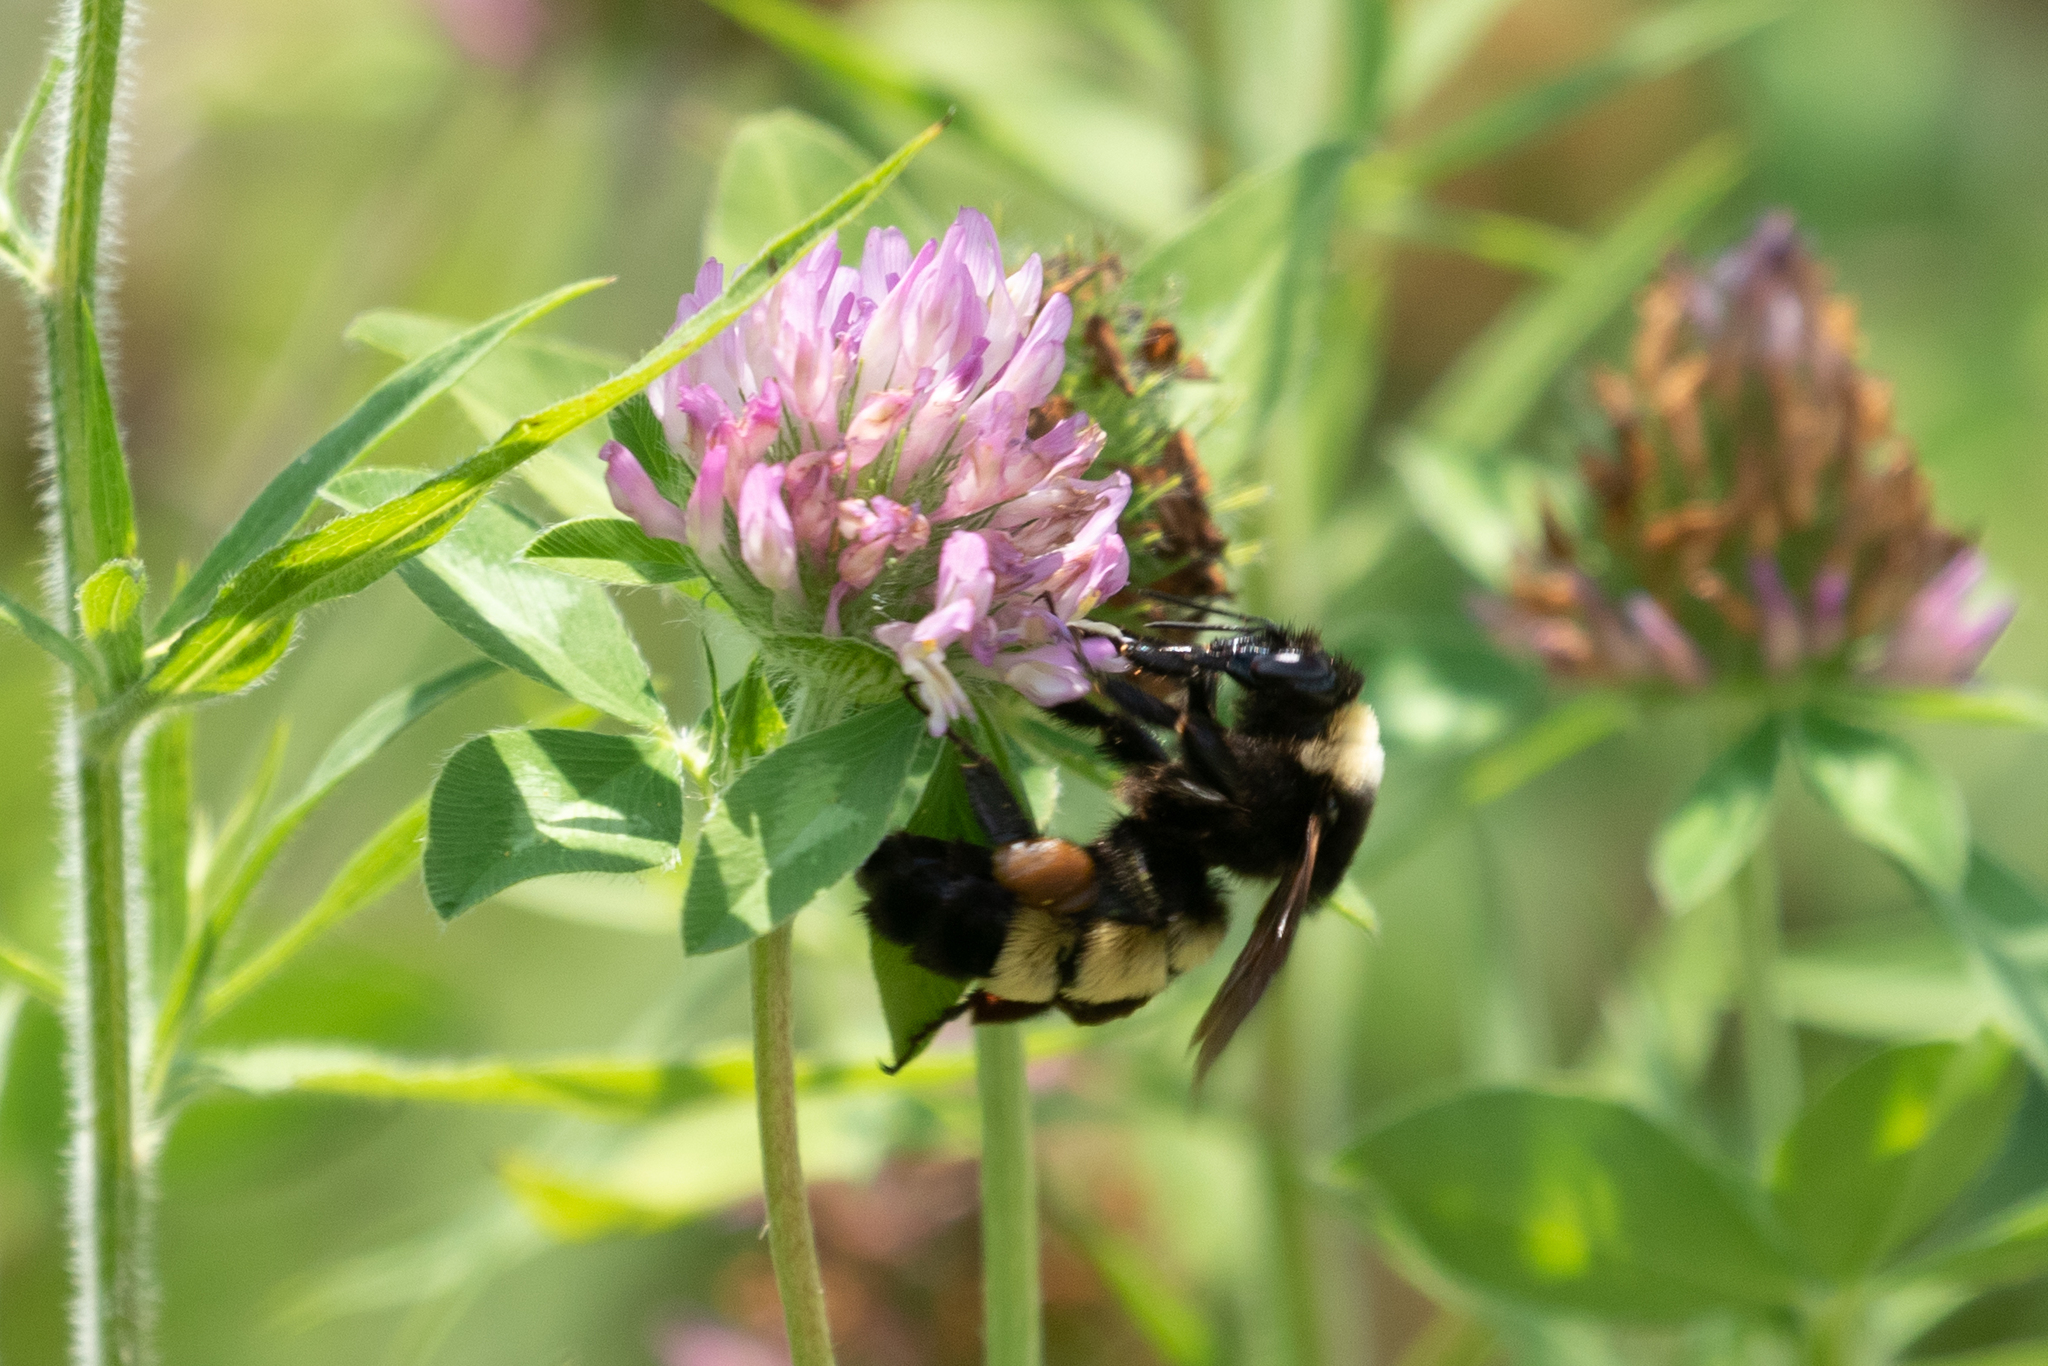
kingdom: Animalia
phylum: Arthropoda
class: Insecta
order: Hymenoptera
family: Apidae
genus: Bombus
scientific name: Bombus pensylvanicus
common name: Bumble bee
